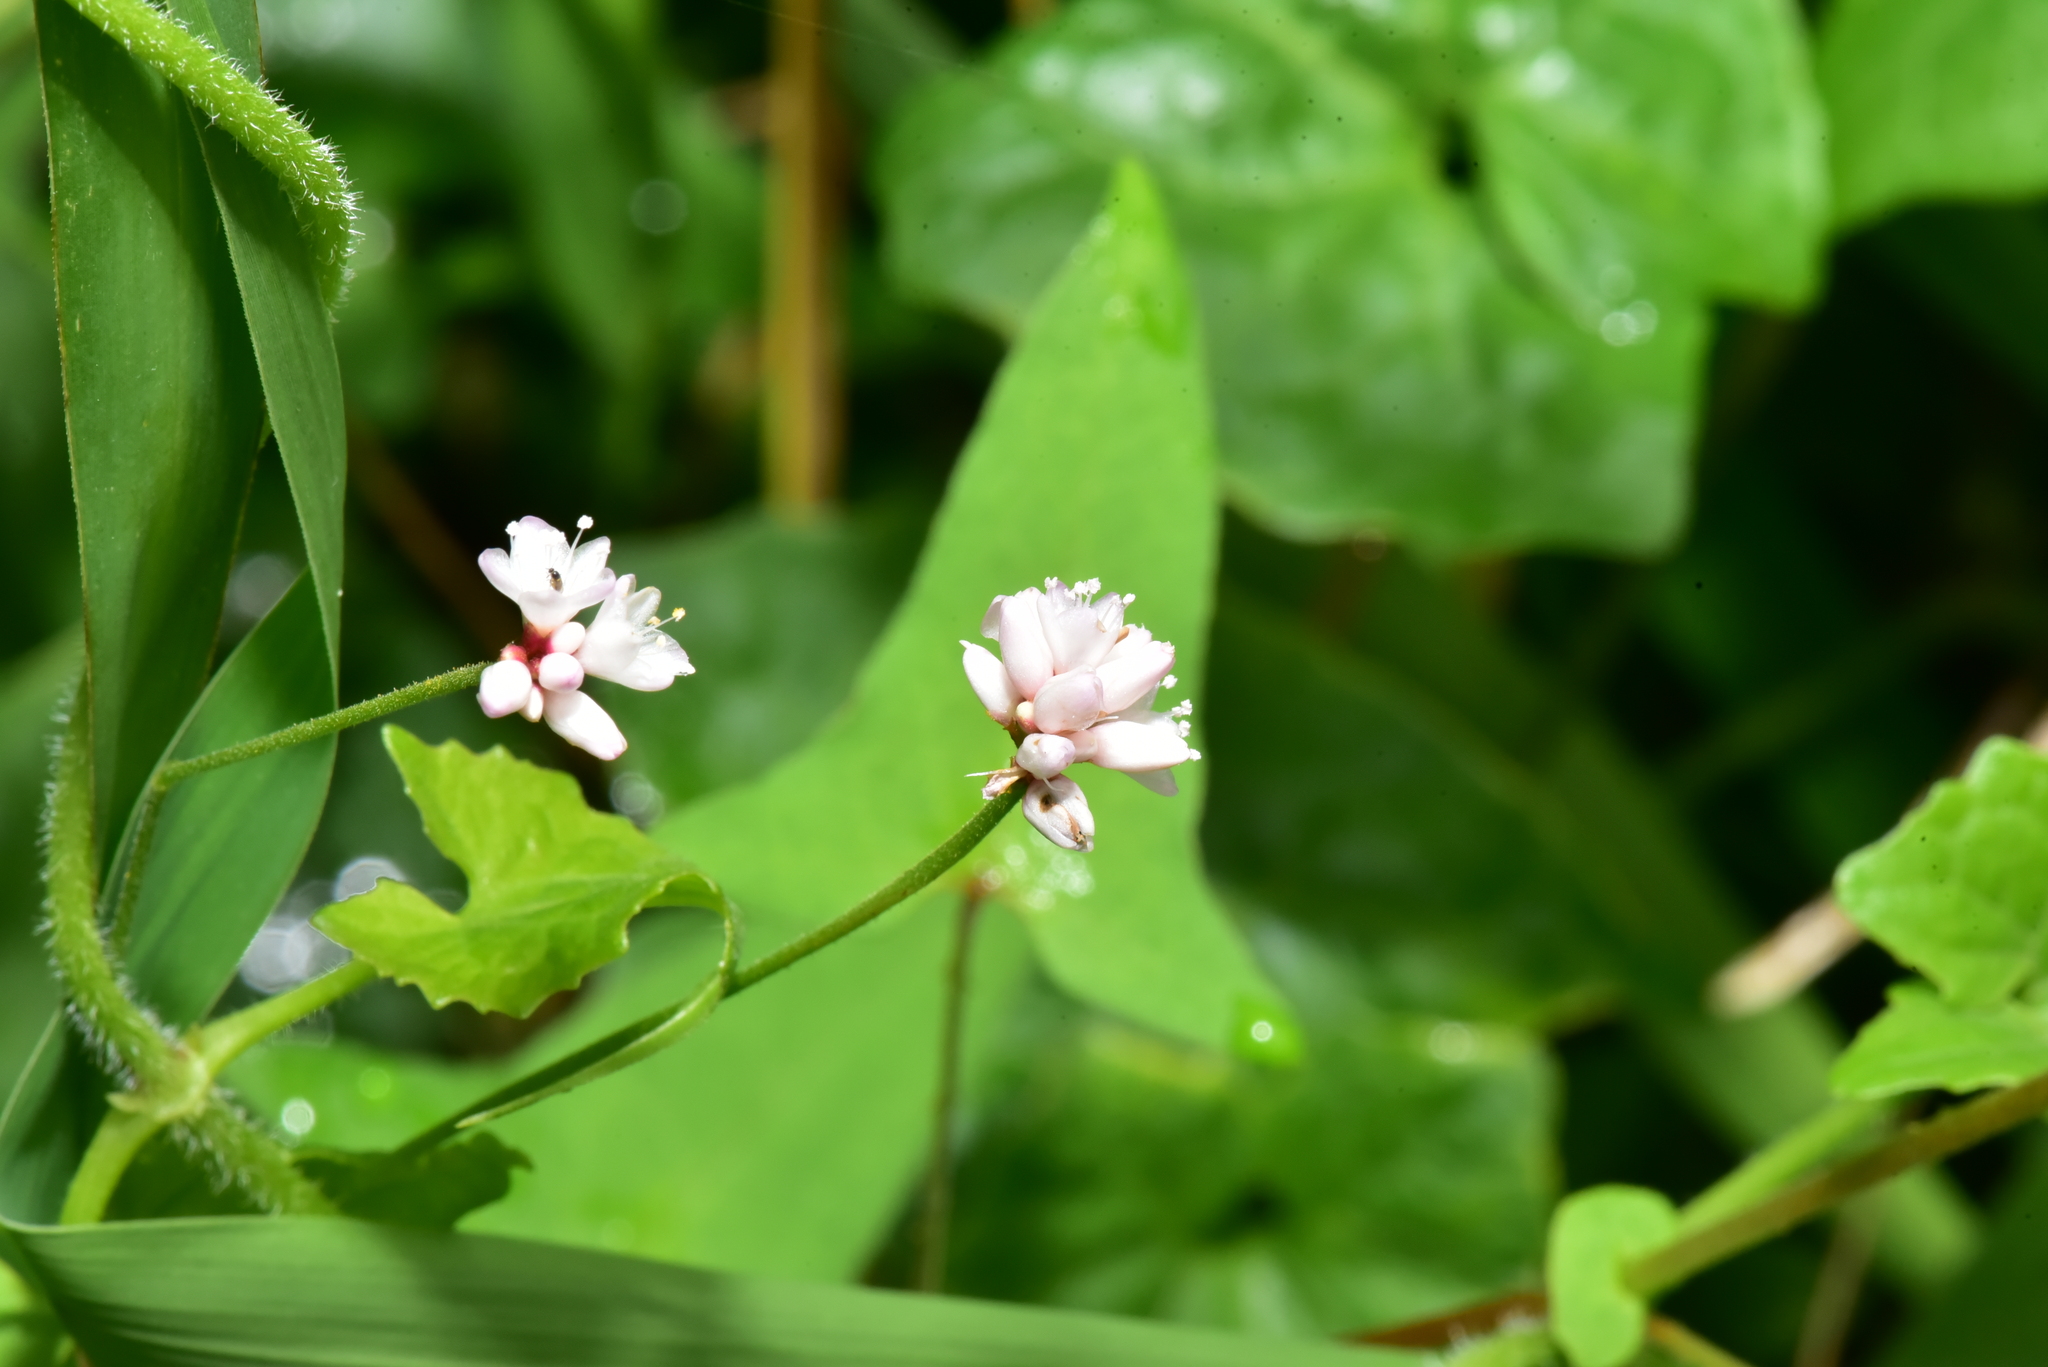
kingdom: Plantae
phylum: Tracheophyta
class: Magnoliopsida
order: Caryophyllales
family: Polygonaceae
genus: Persicaria
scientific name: Persicaria senticosa
